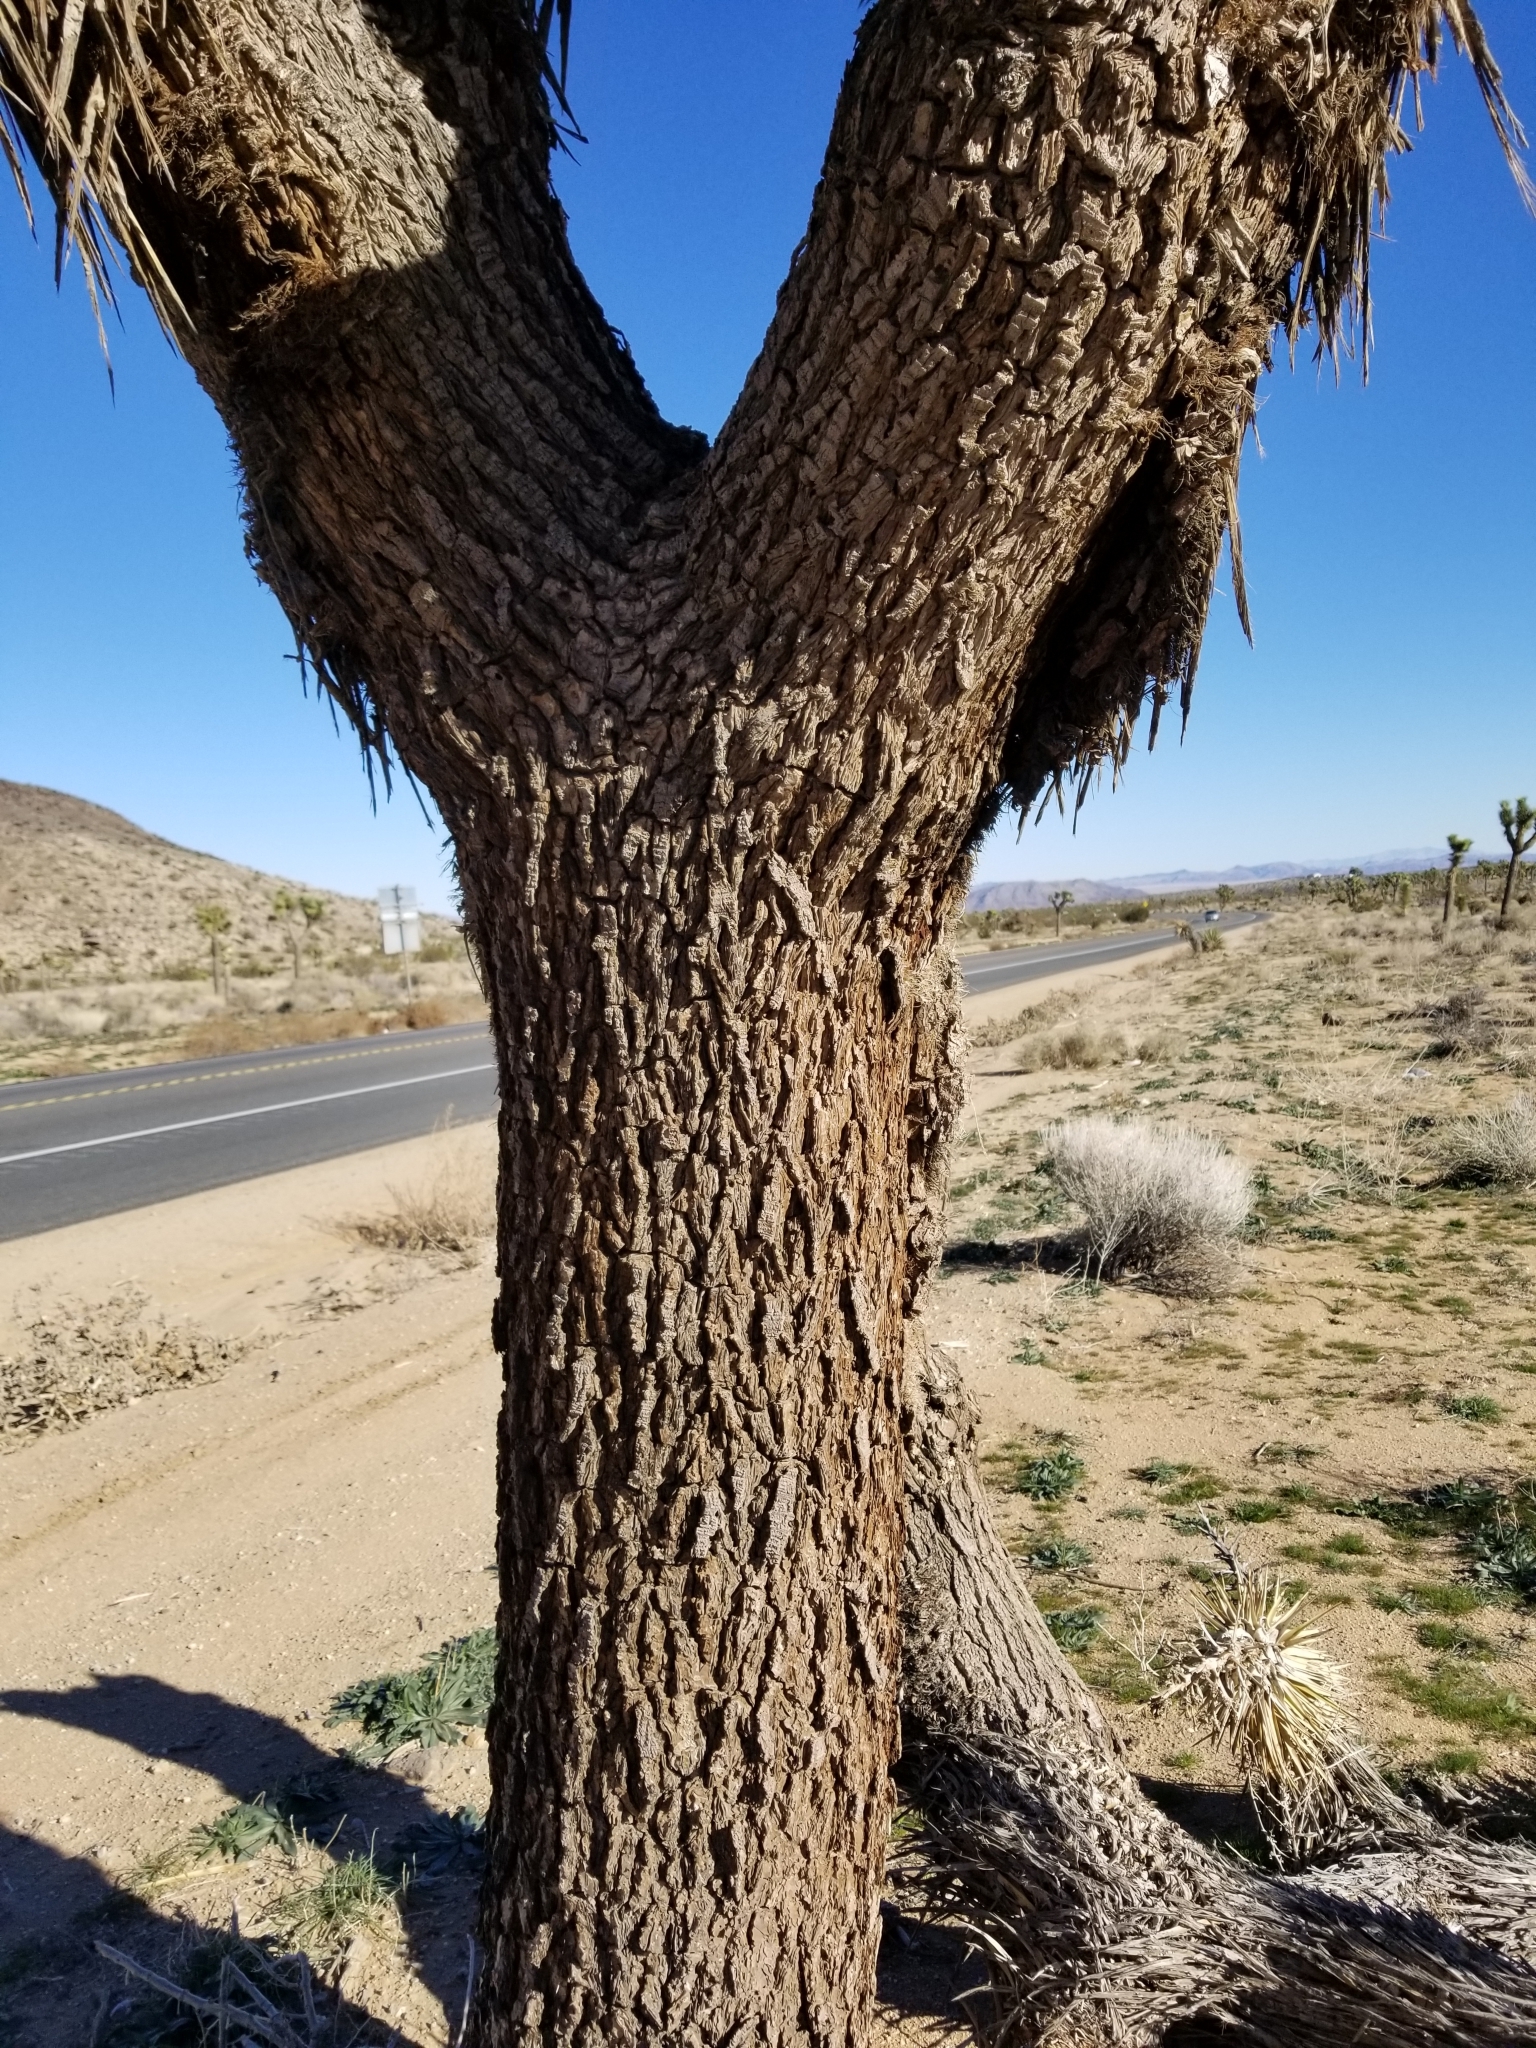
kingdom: Plantae
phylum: Tracheophyta
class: Liliopsida
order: Asparagales
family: Asparagaceae
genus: Yucca
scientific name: Yucca brevifolia
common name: Joshua tree
